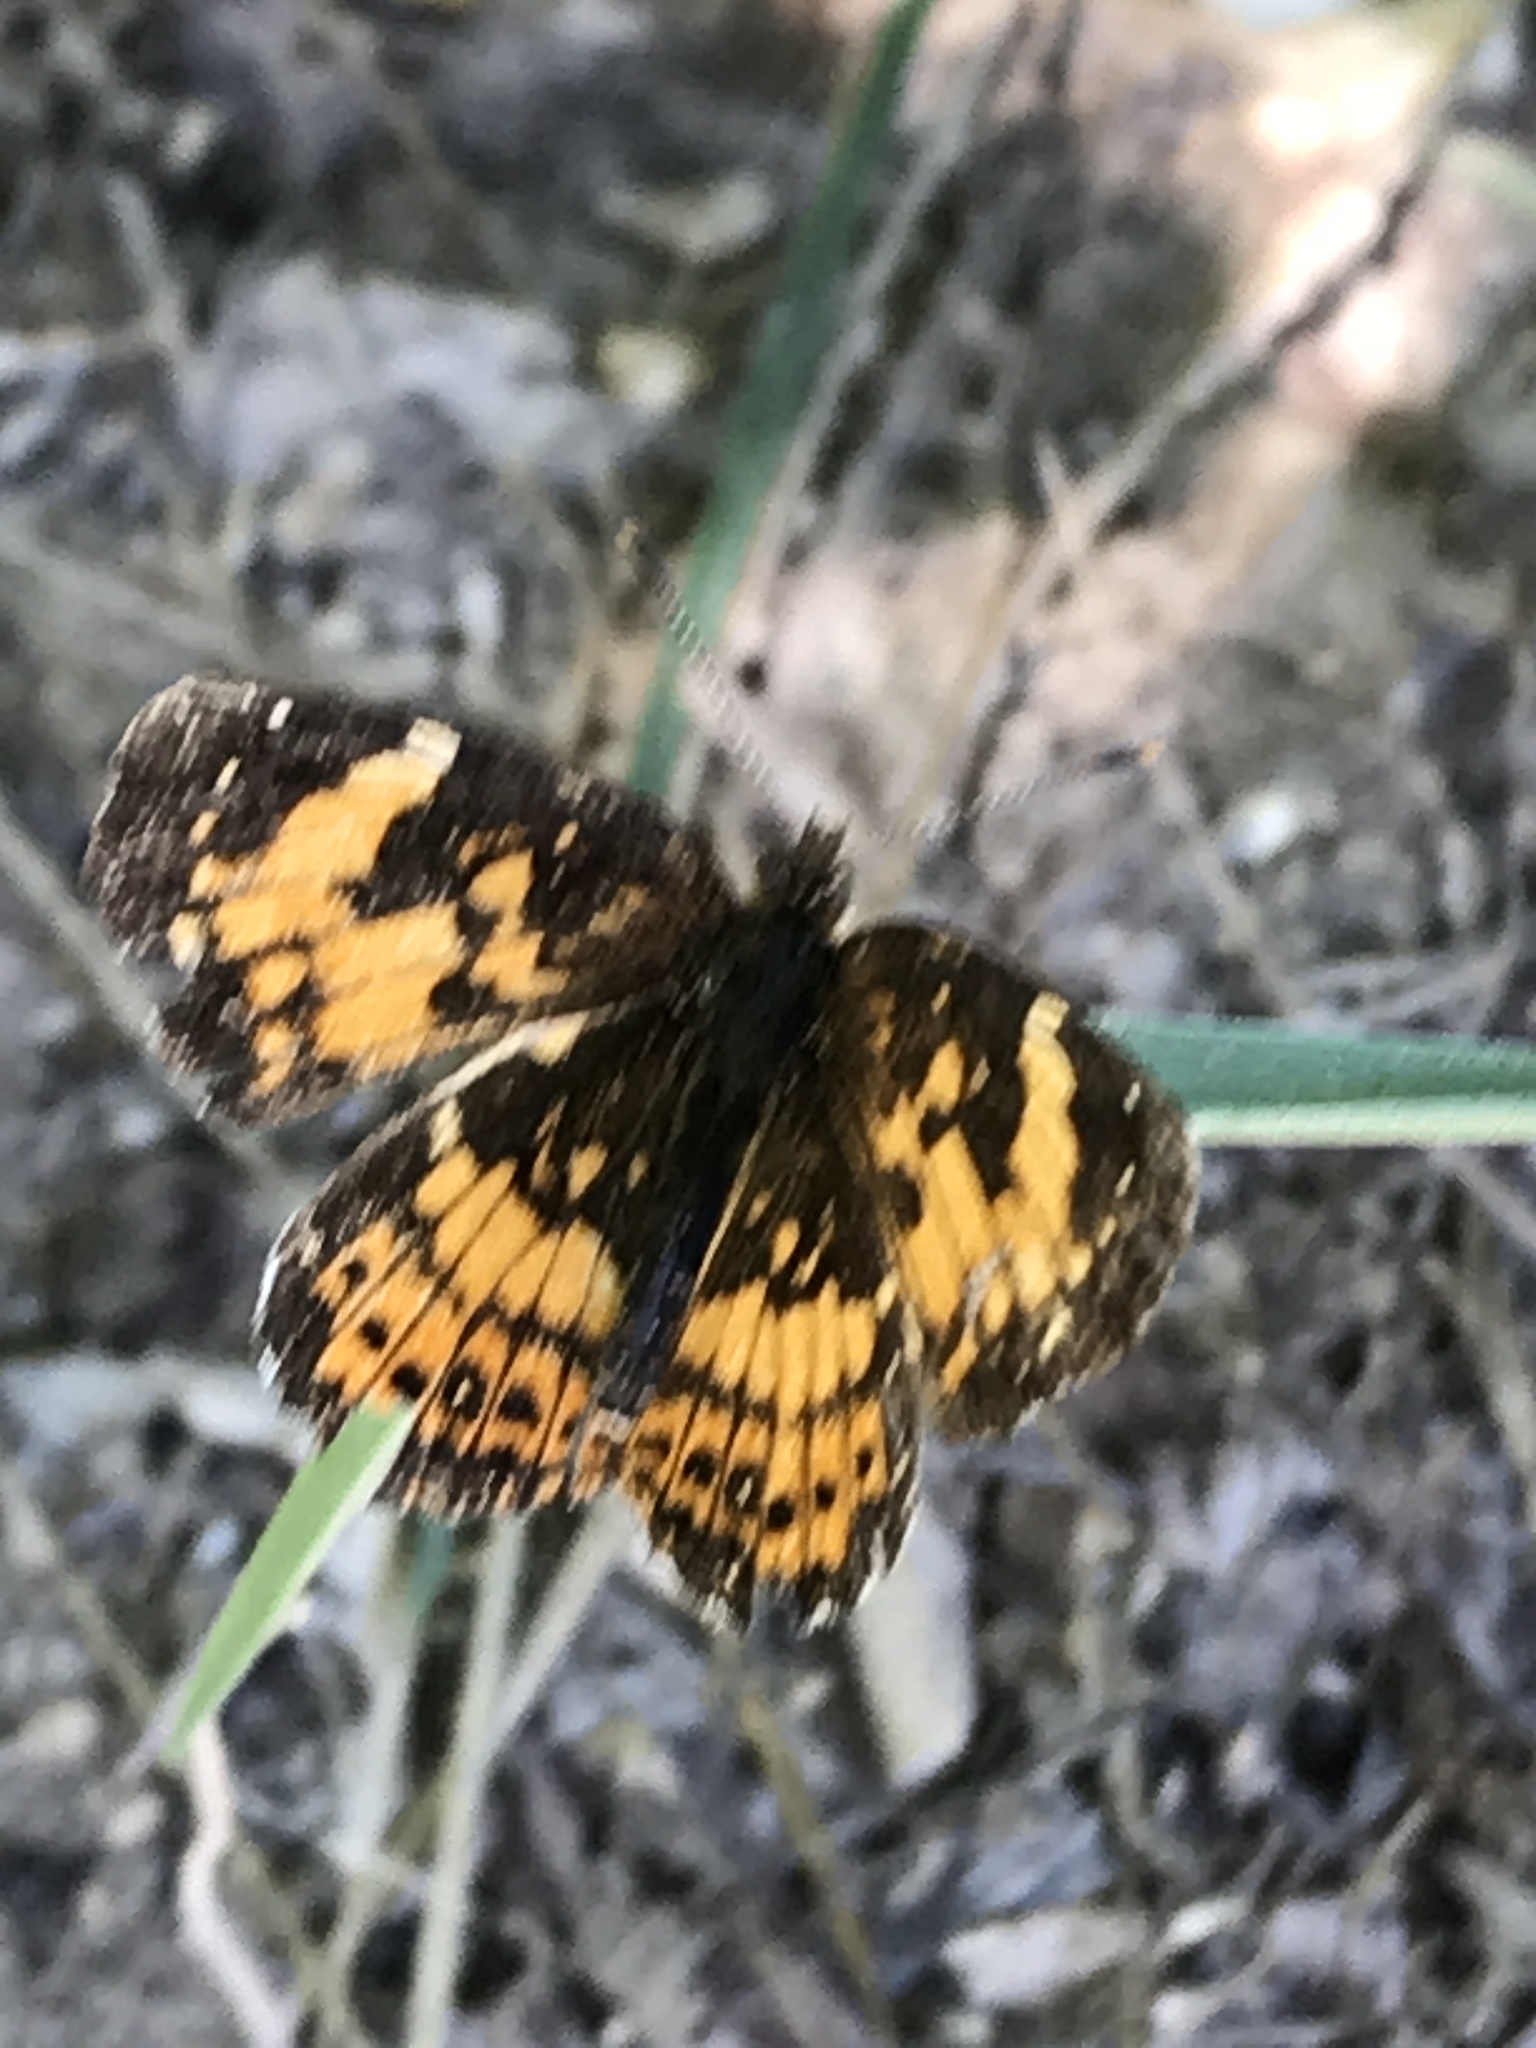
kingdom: Animalia
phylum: Arthropoda
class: Insecta
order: Lepidoptera
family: Nymphalidae
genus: Chlosyne
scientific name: Chlosyne nycteis
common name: Silvery checkerspot
